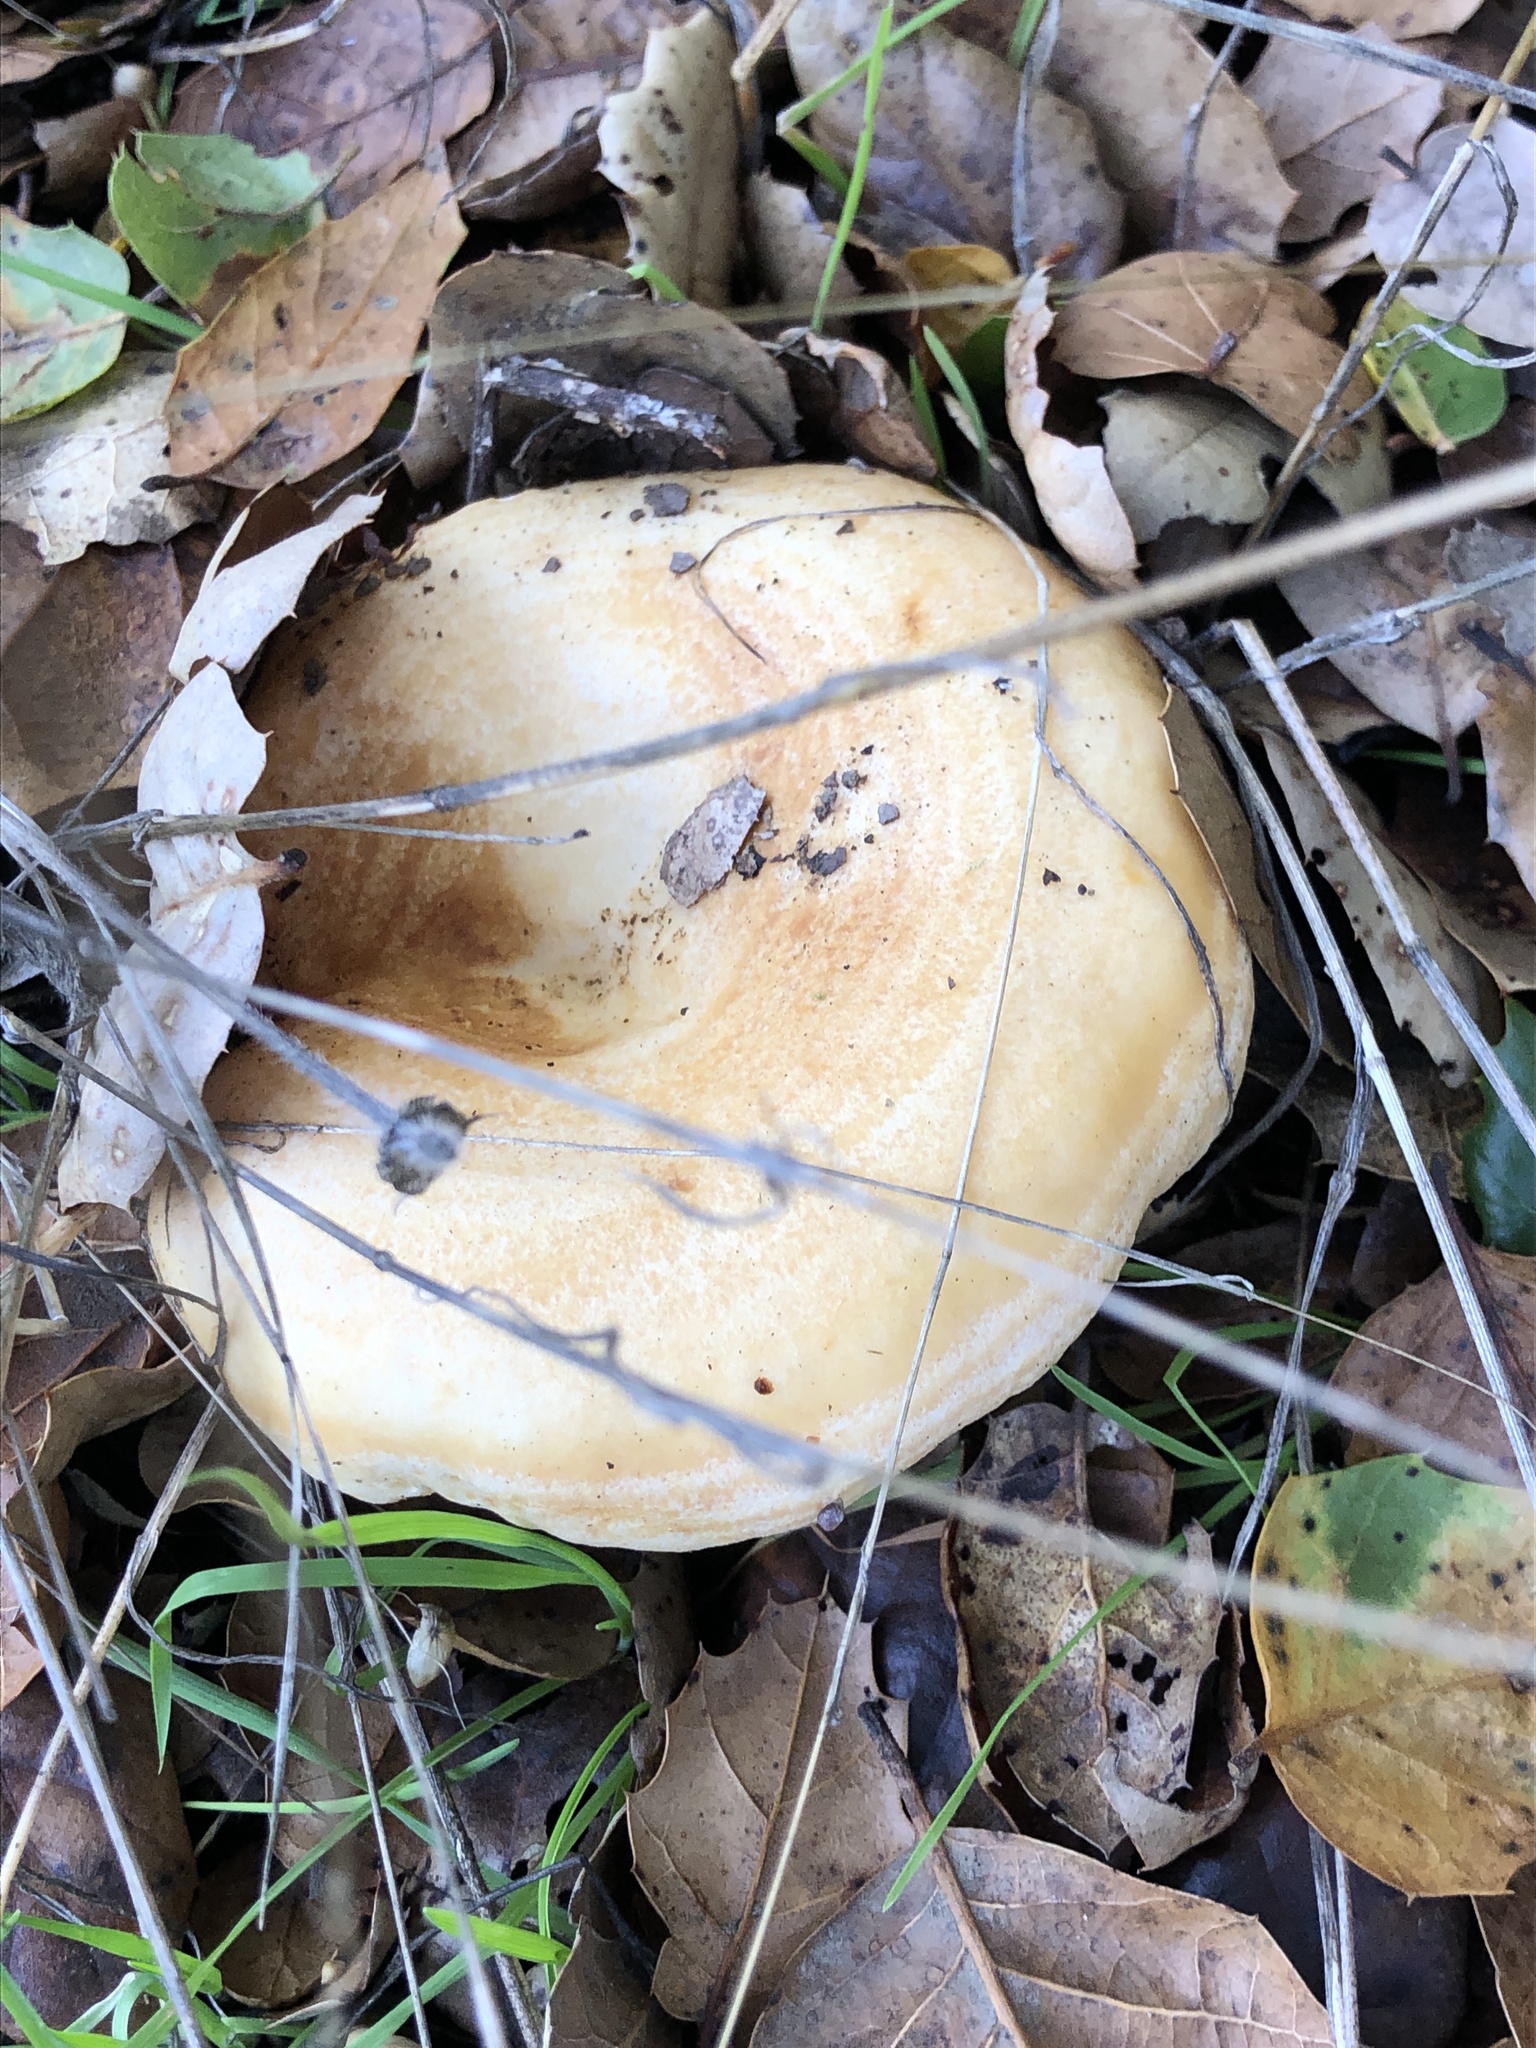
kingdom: Fungi
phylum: Basidiomycota
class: Agaricomycetes
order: Russulales
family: Russulaceae
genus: Lactarius
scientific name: Lactarius alnicola
